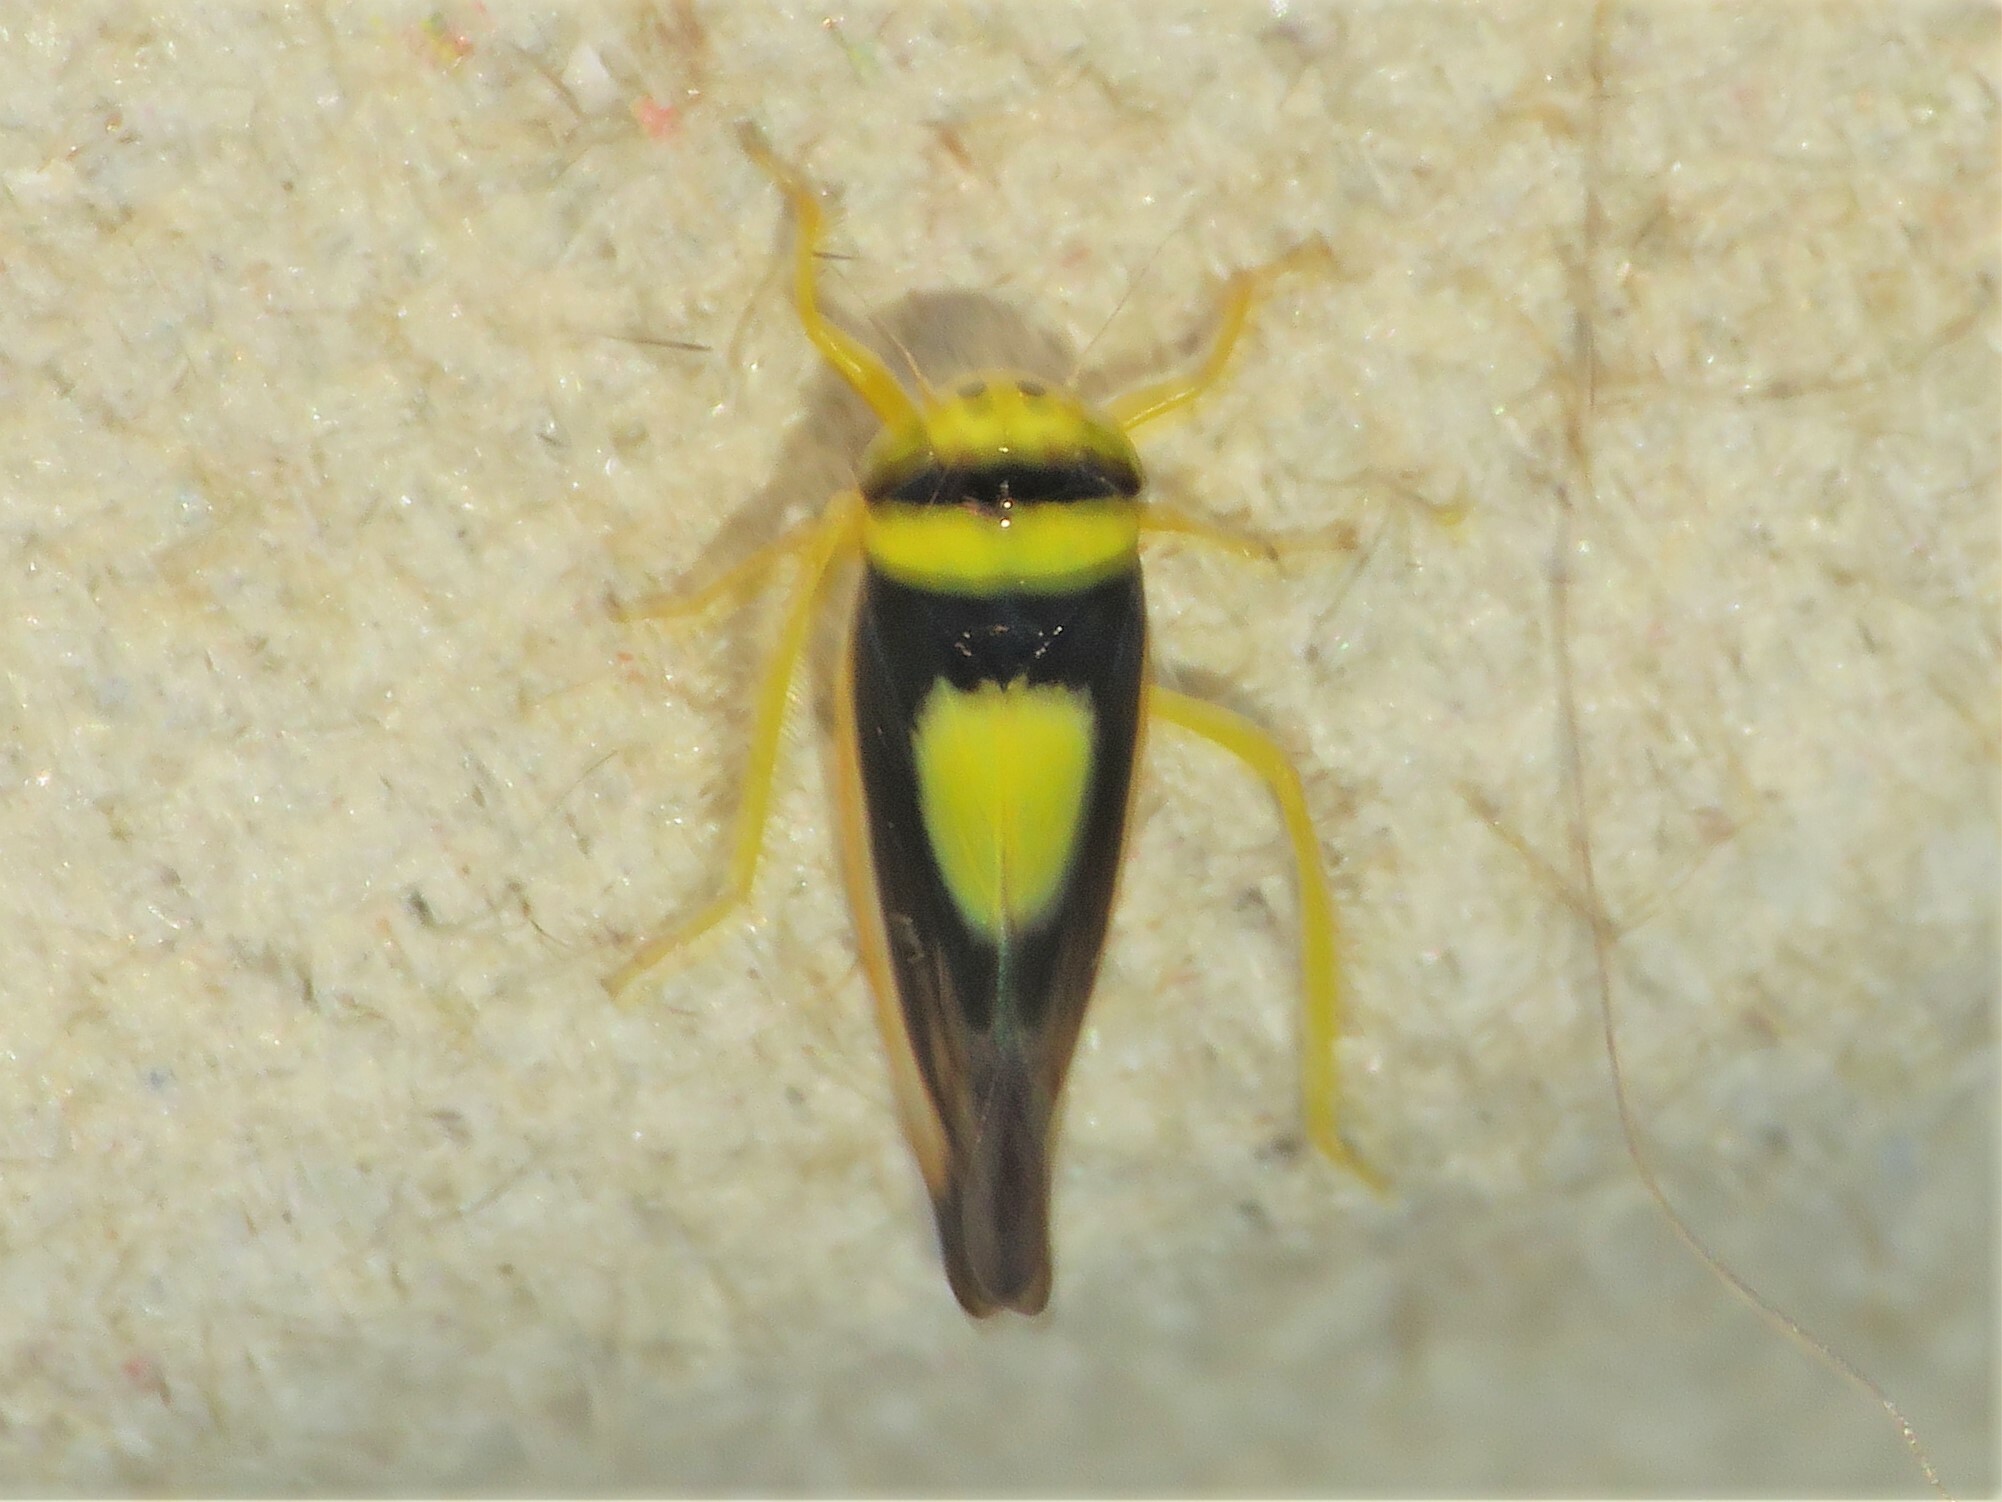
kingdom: Animalia
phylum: Arthropoda
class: Insecta
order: Hemiptera
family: Cicadellidae
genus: Colladonus
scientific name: Colladonus clitellarius
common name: The saddleback leafhopper
